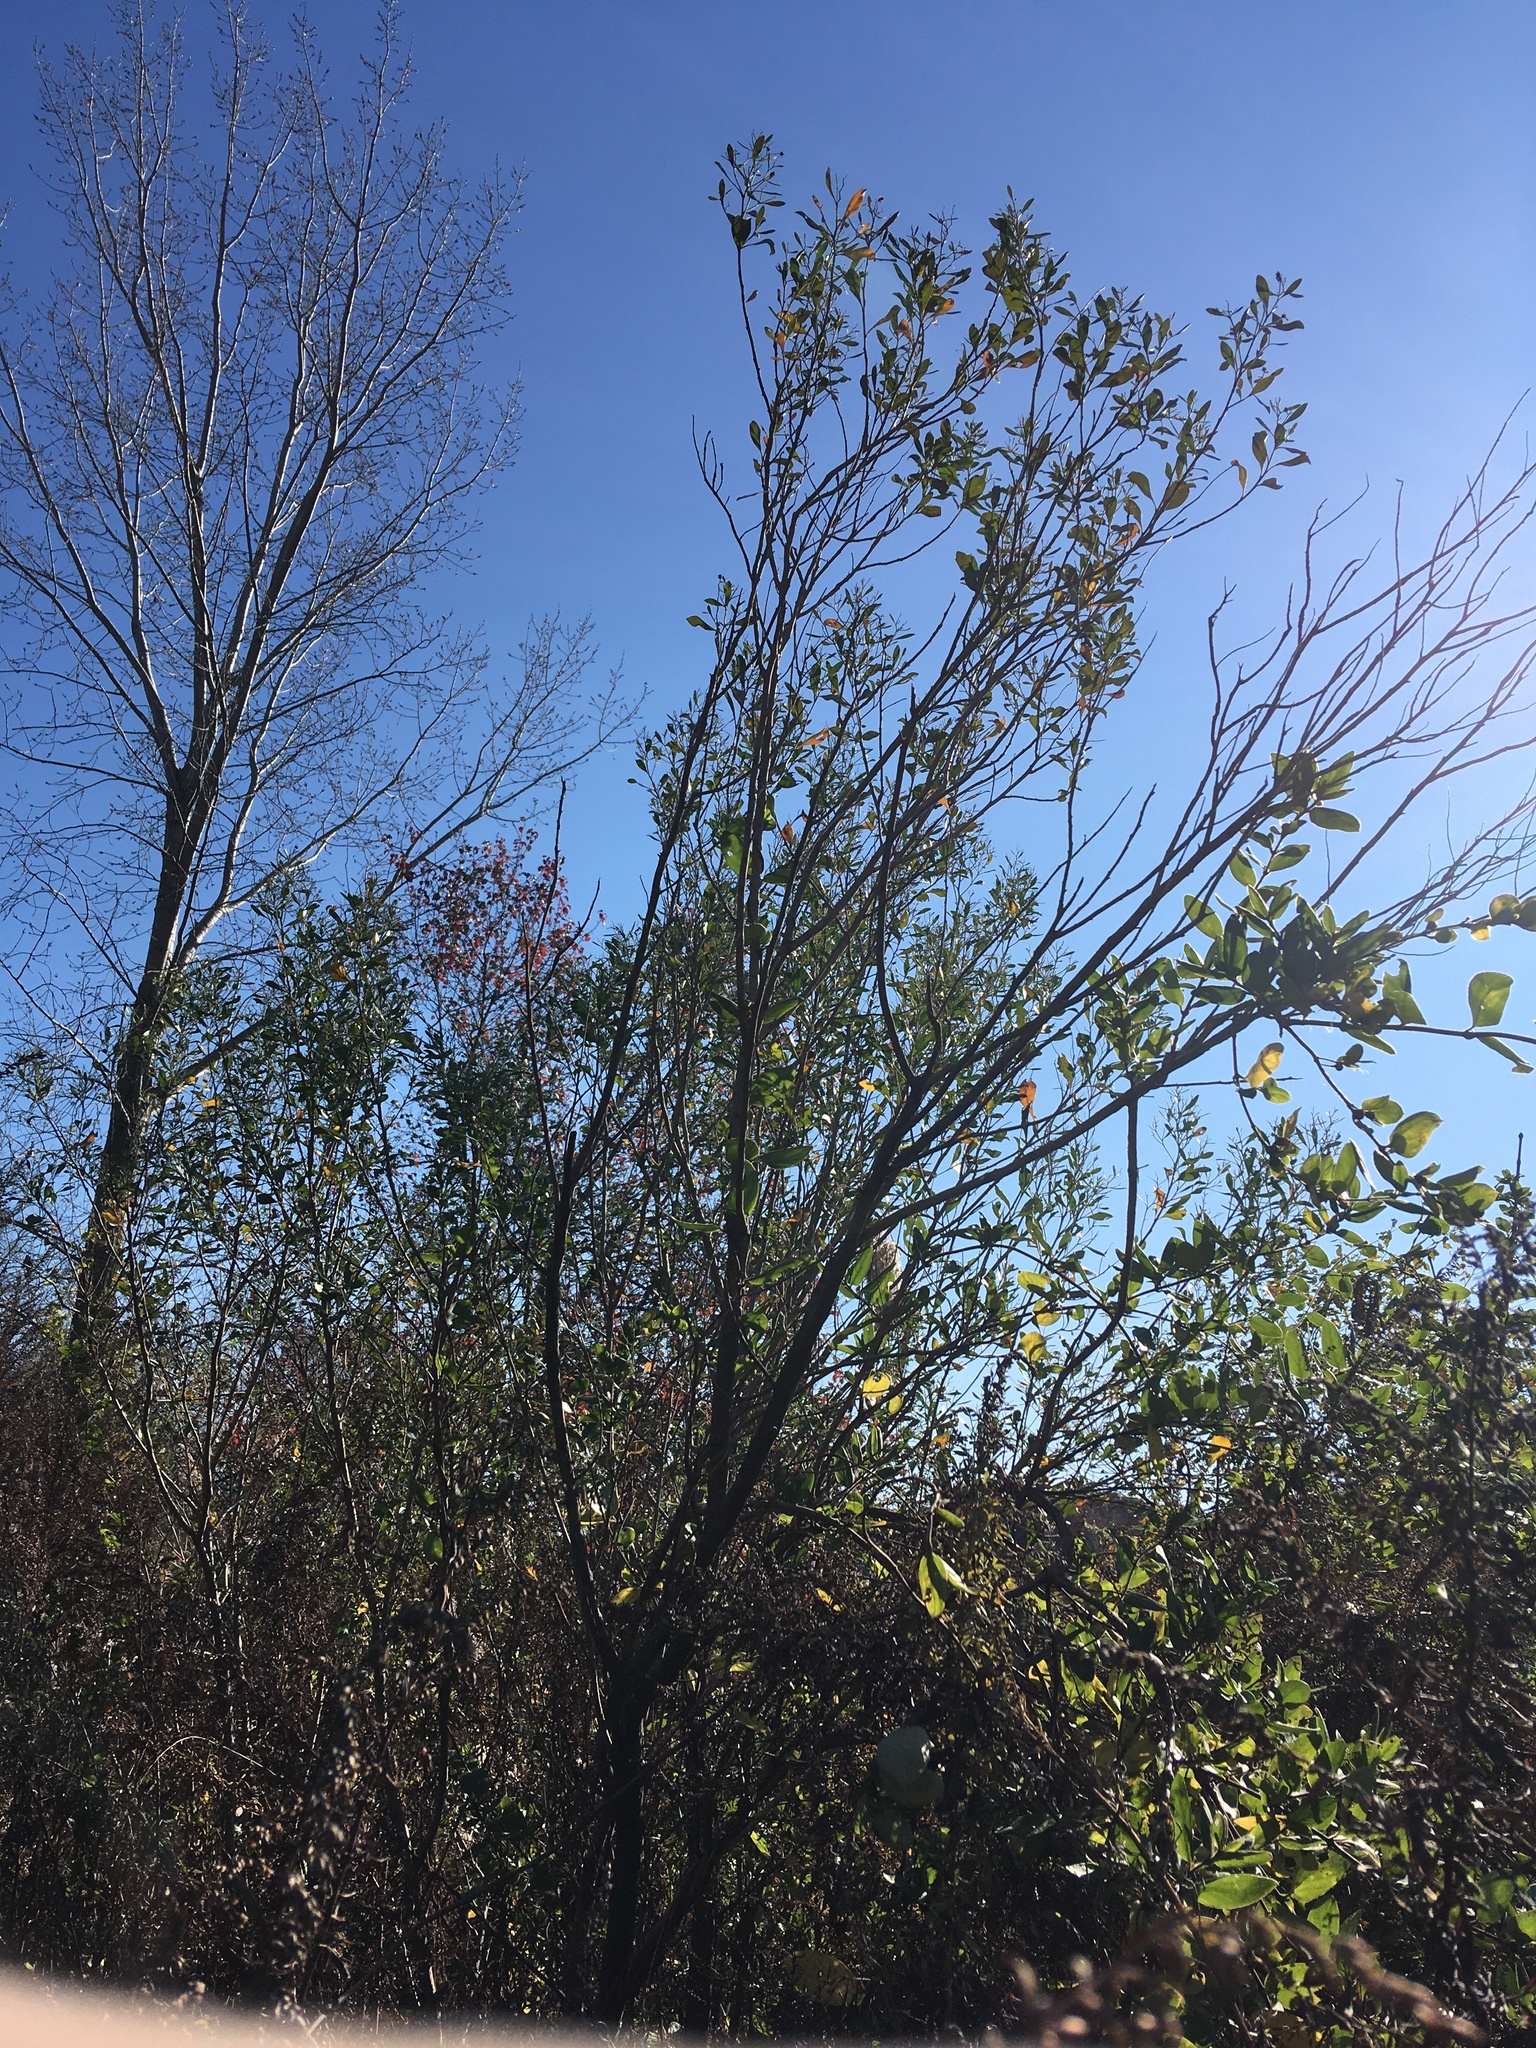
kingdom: Plantae
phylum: Tracheophyta
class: Magnoliopsida
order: Asterales
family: Asteraceae
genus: Baccharis
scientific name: Baccharis halimifolia
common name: Eastern baccharis
